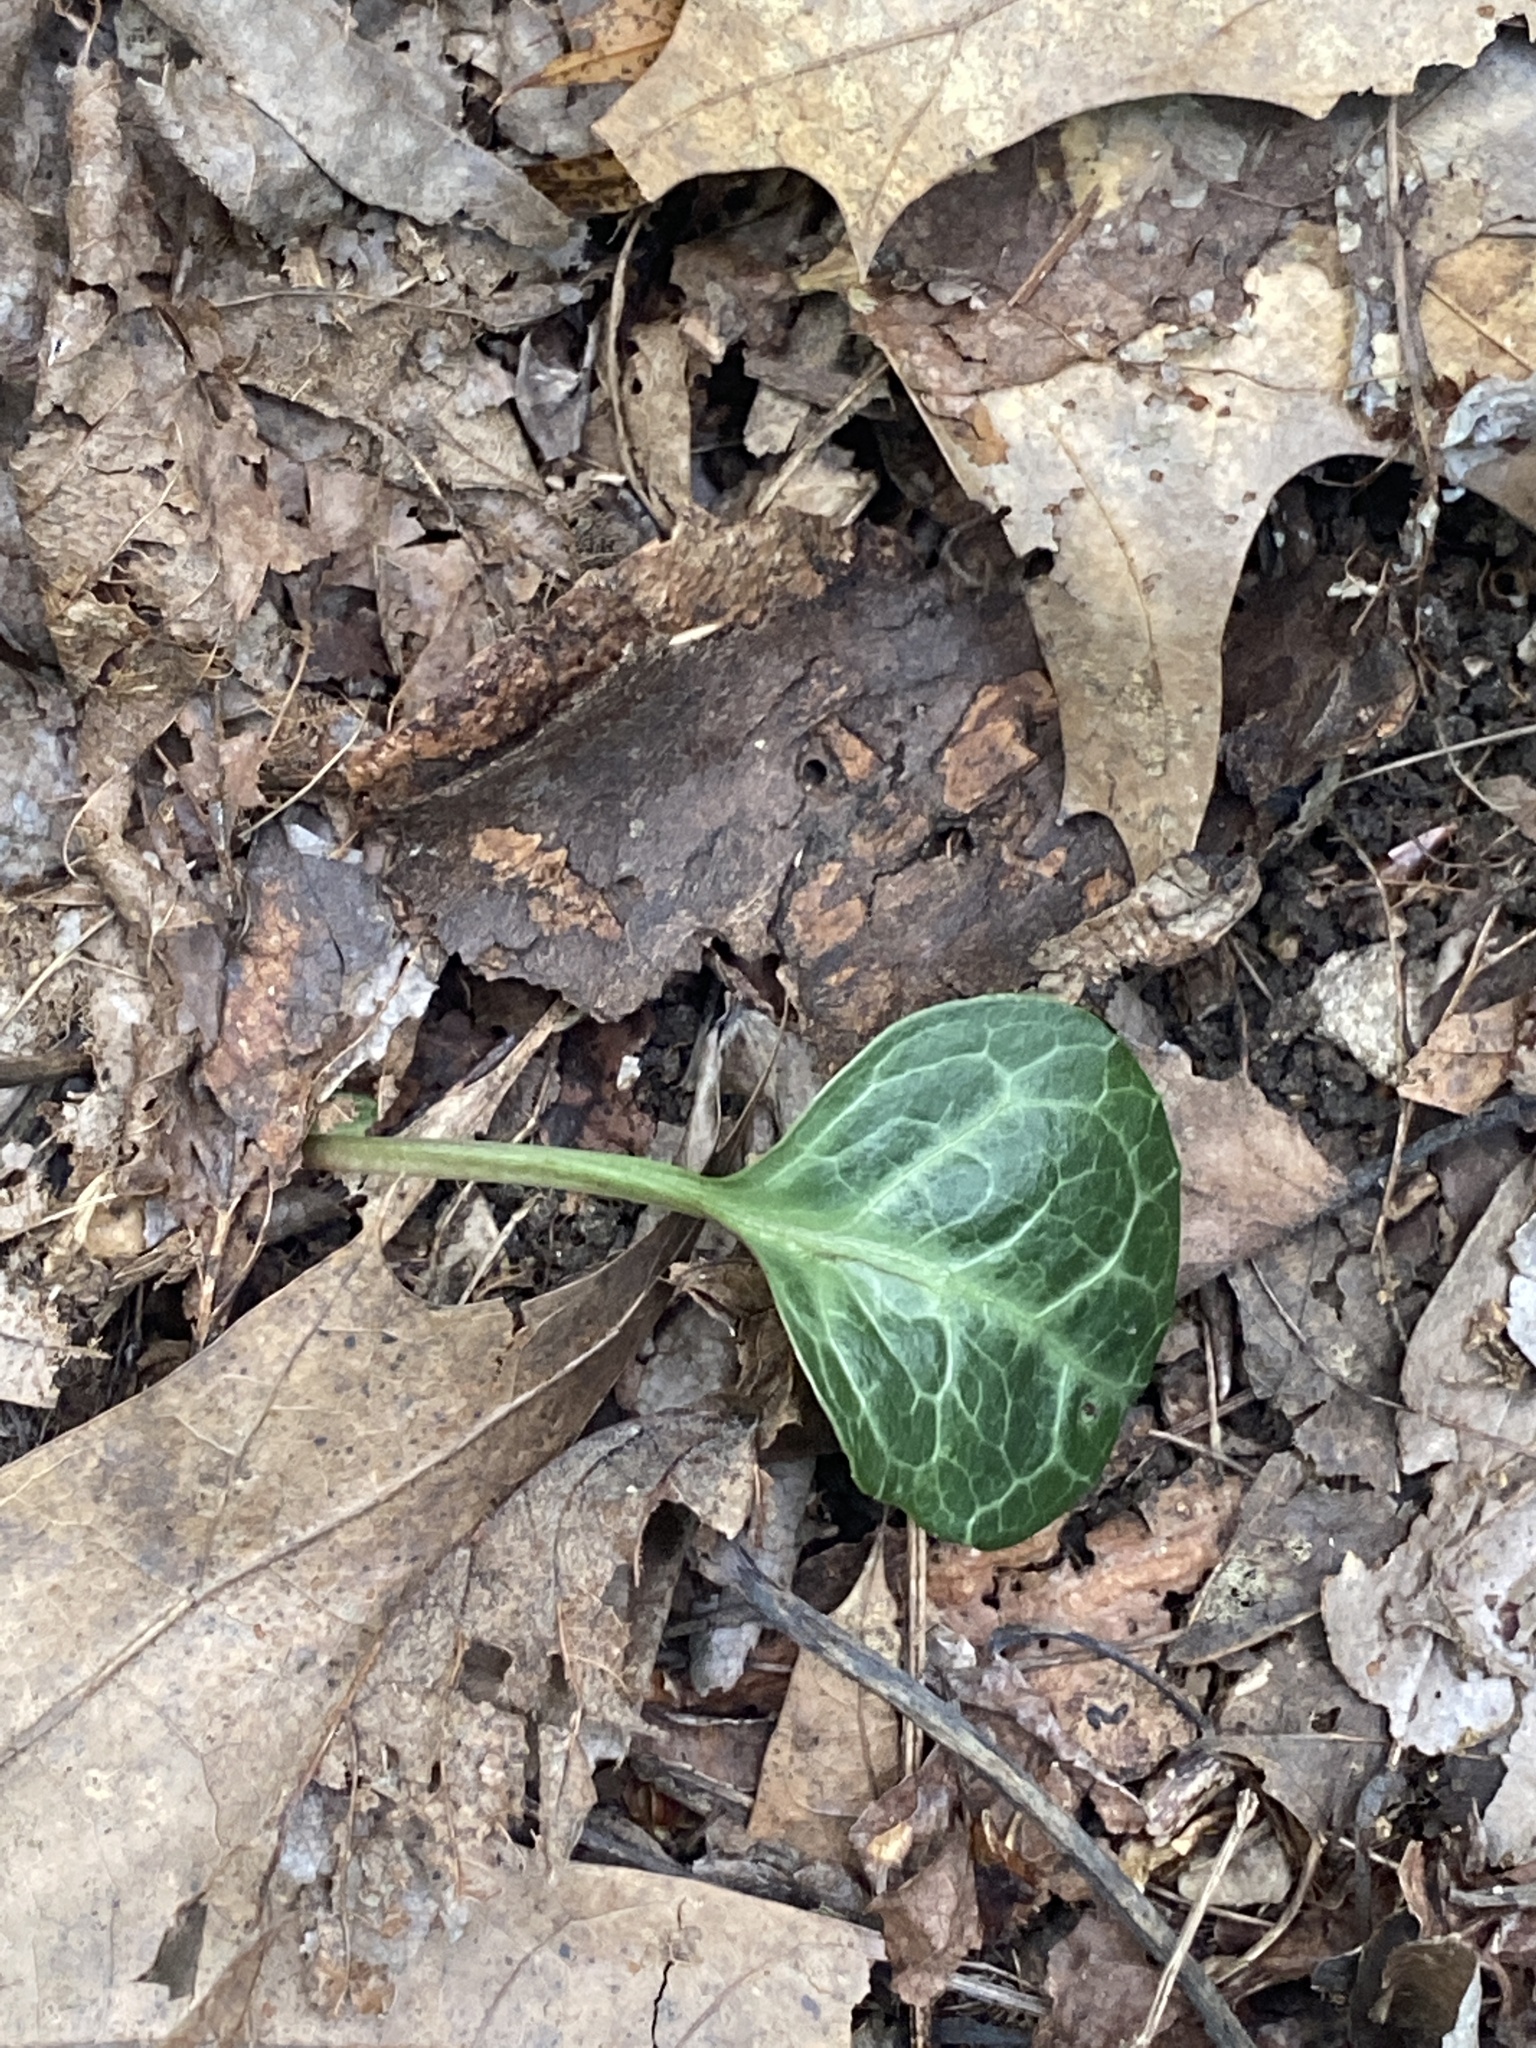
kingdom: Plantae
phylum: Tracheophyta
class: Magnoliopsida
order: Ericales
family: Ericaceae
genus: Pyrola
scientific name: Pyrola americana
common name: American wintergreen
